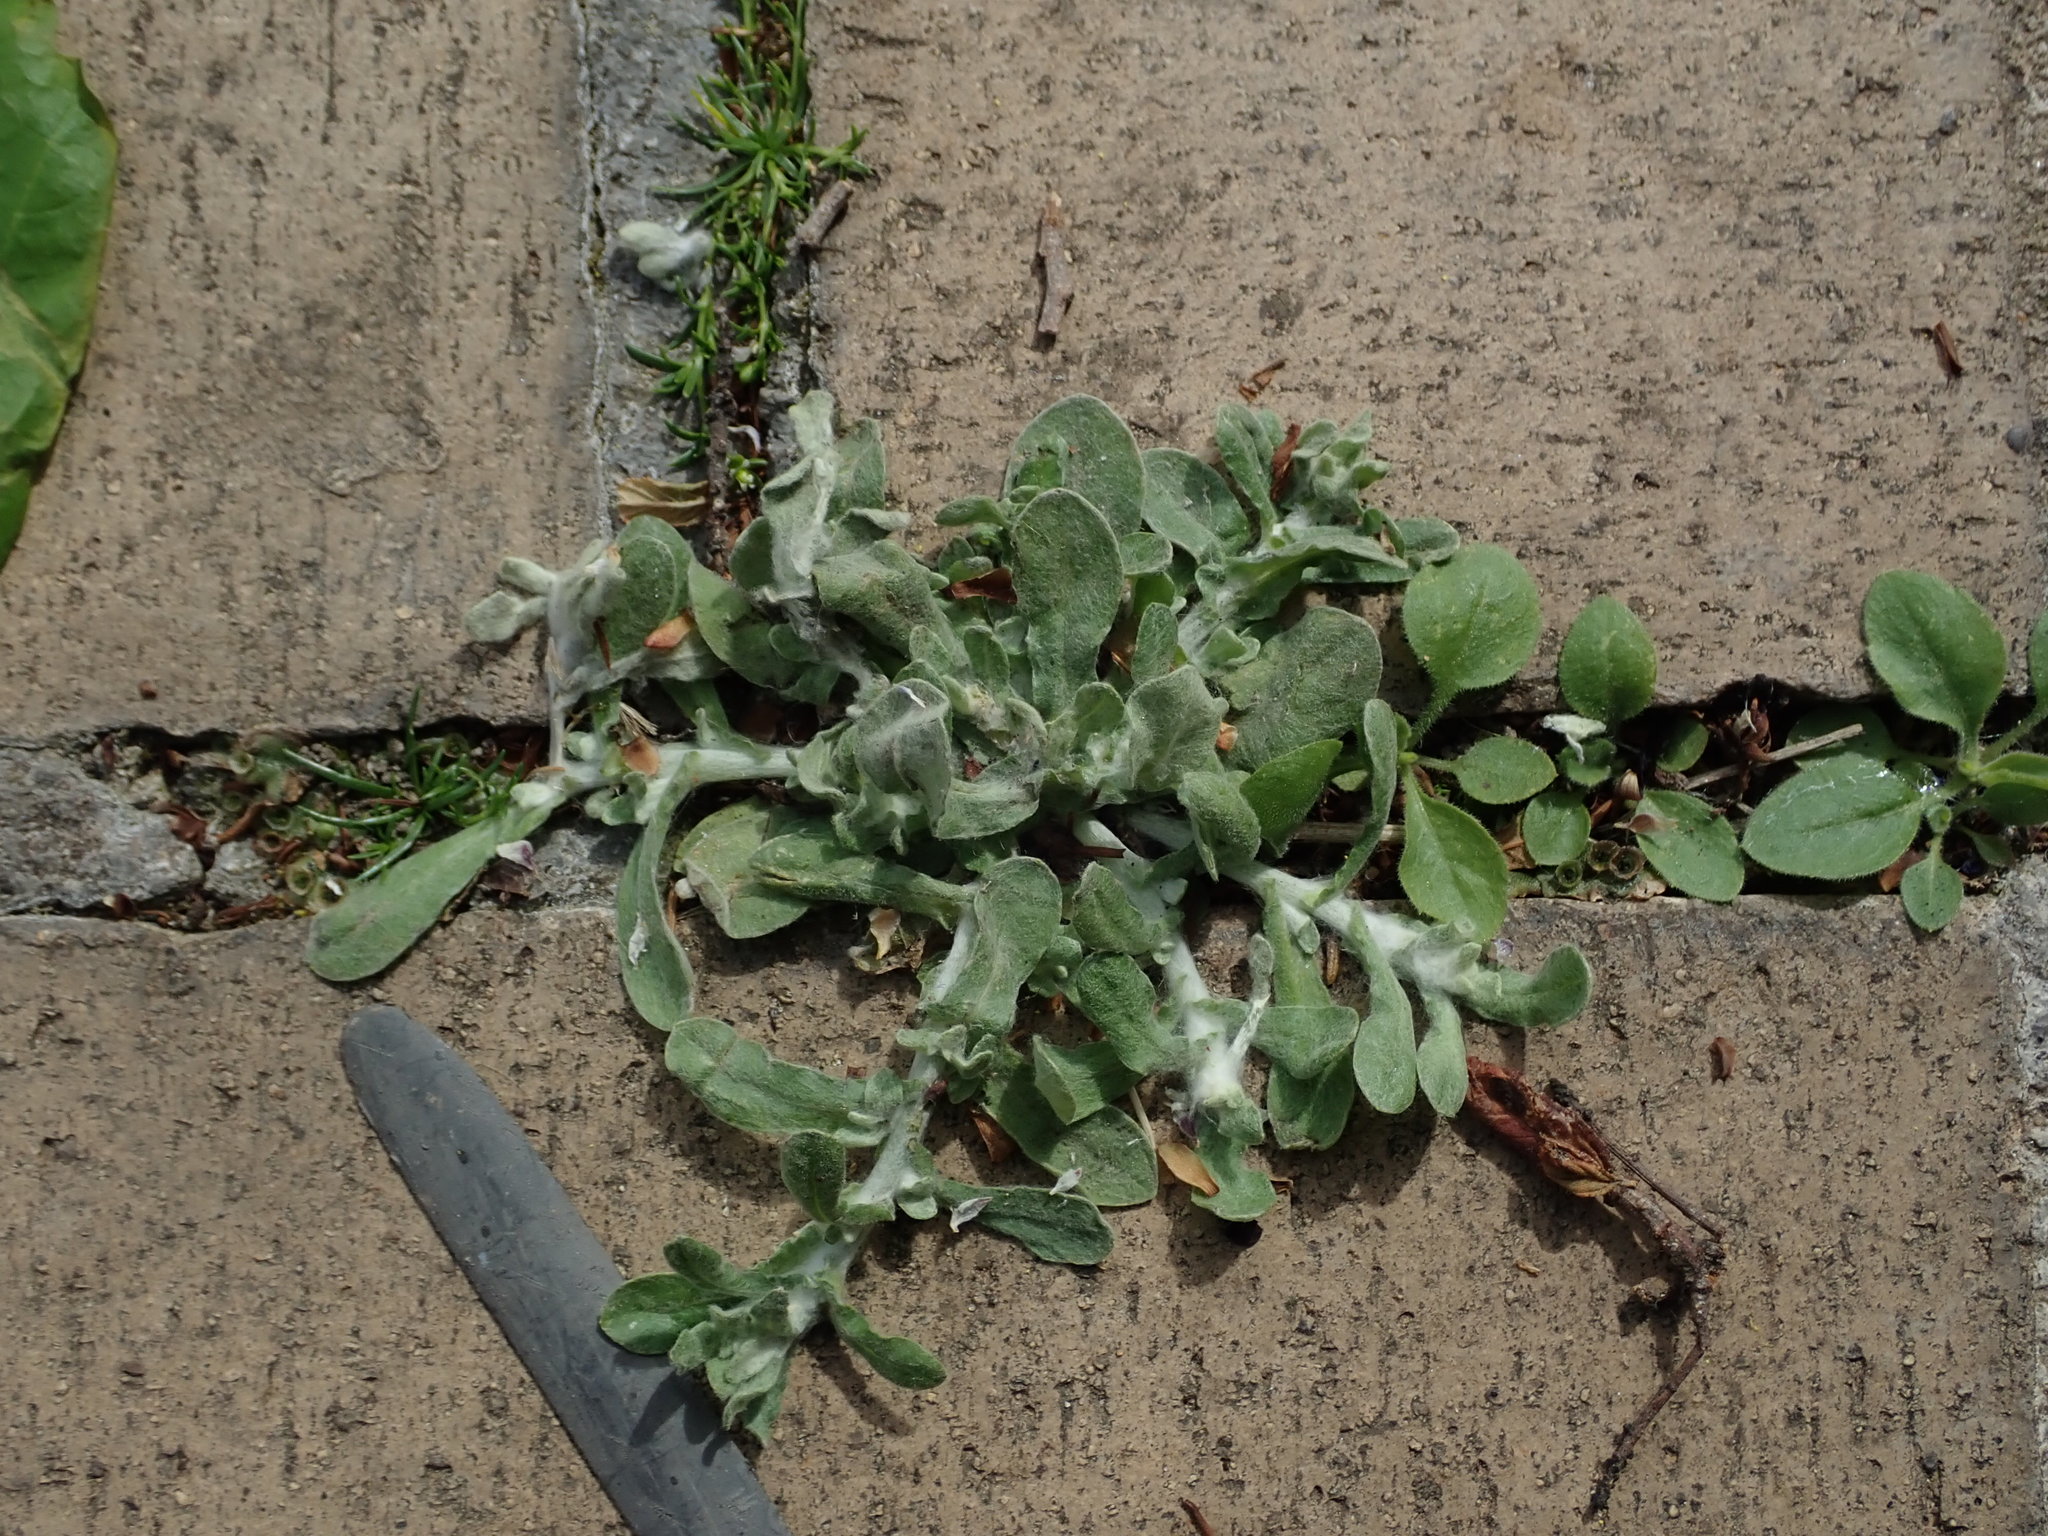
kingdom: Plantae
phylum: Tracheophyta
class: Magnoliopsida
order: Asterales
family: Asteraceae
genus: Helichrysum
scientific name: Helichrysum luteoalbum
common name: Daisy
